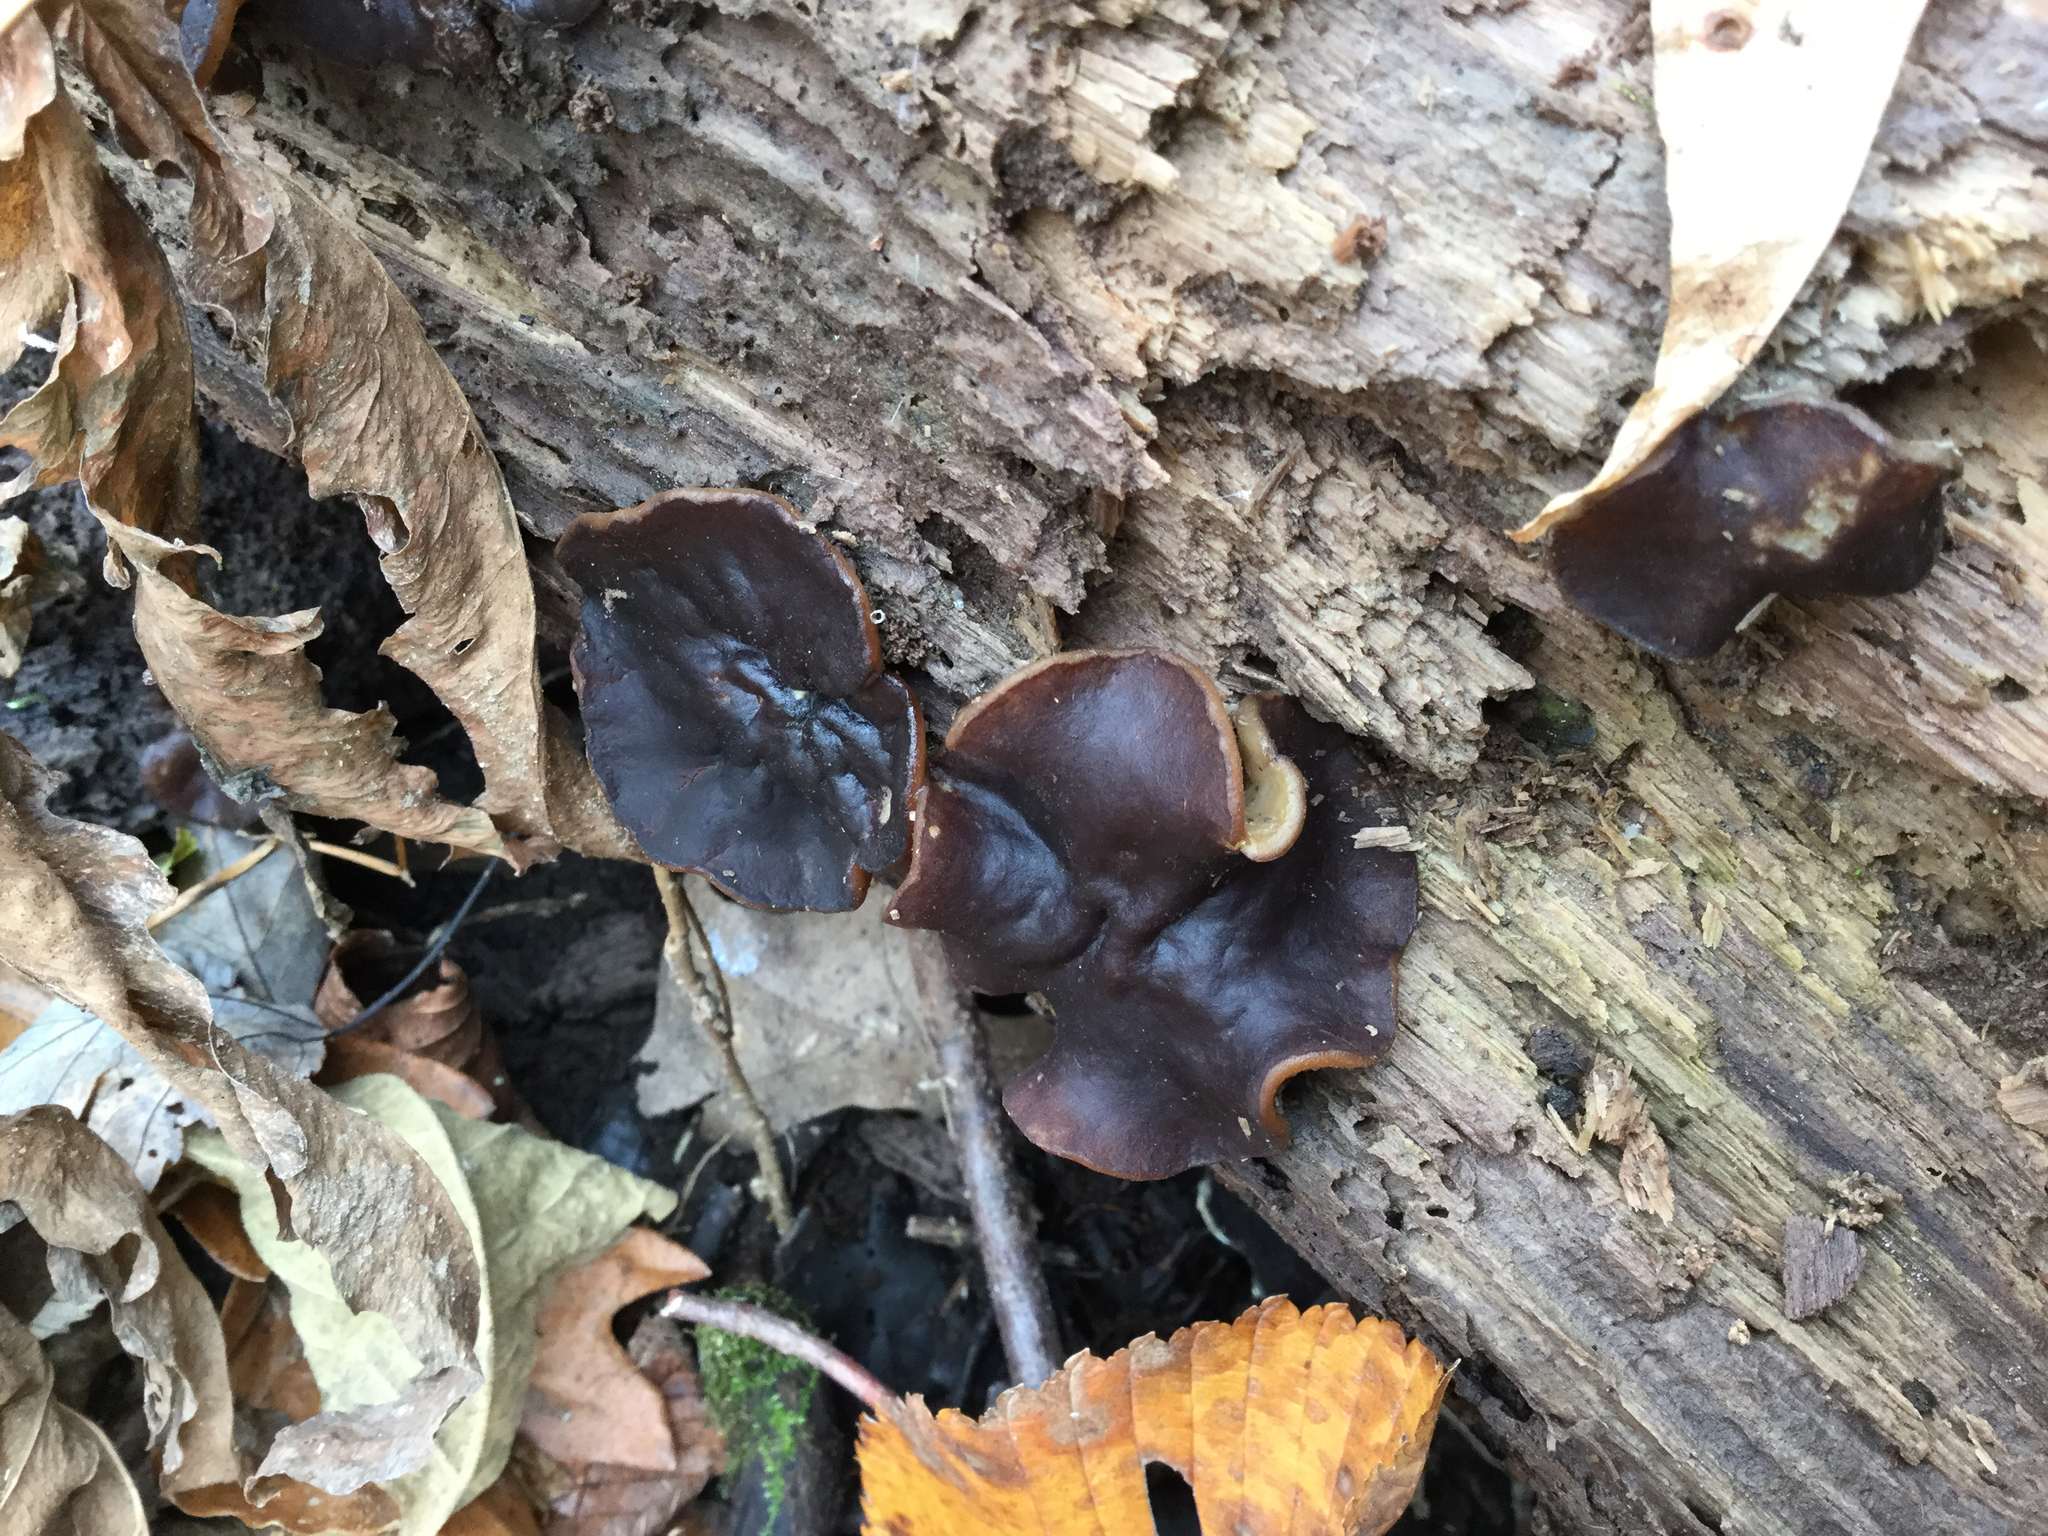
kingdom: Fungi
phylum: Ascomycota
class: Pezizomycetes
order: Pezizales
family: Pezizaceae
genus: Pachyella
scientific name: Pachyella clypeata
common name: Copper penny fungus
